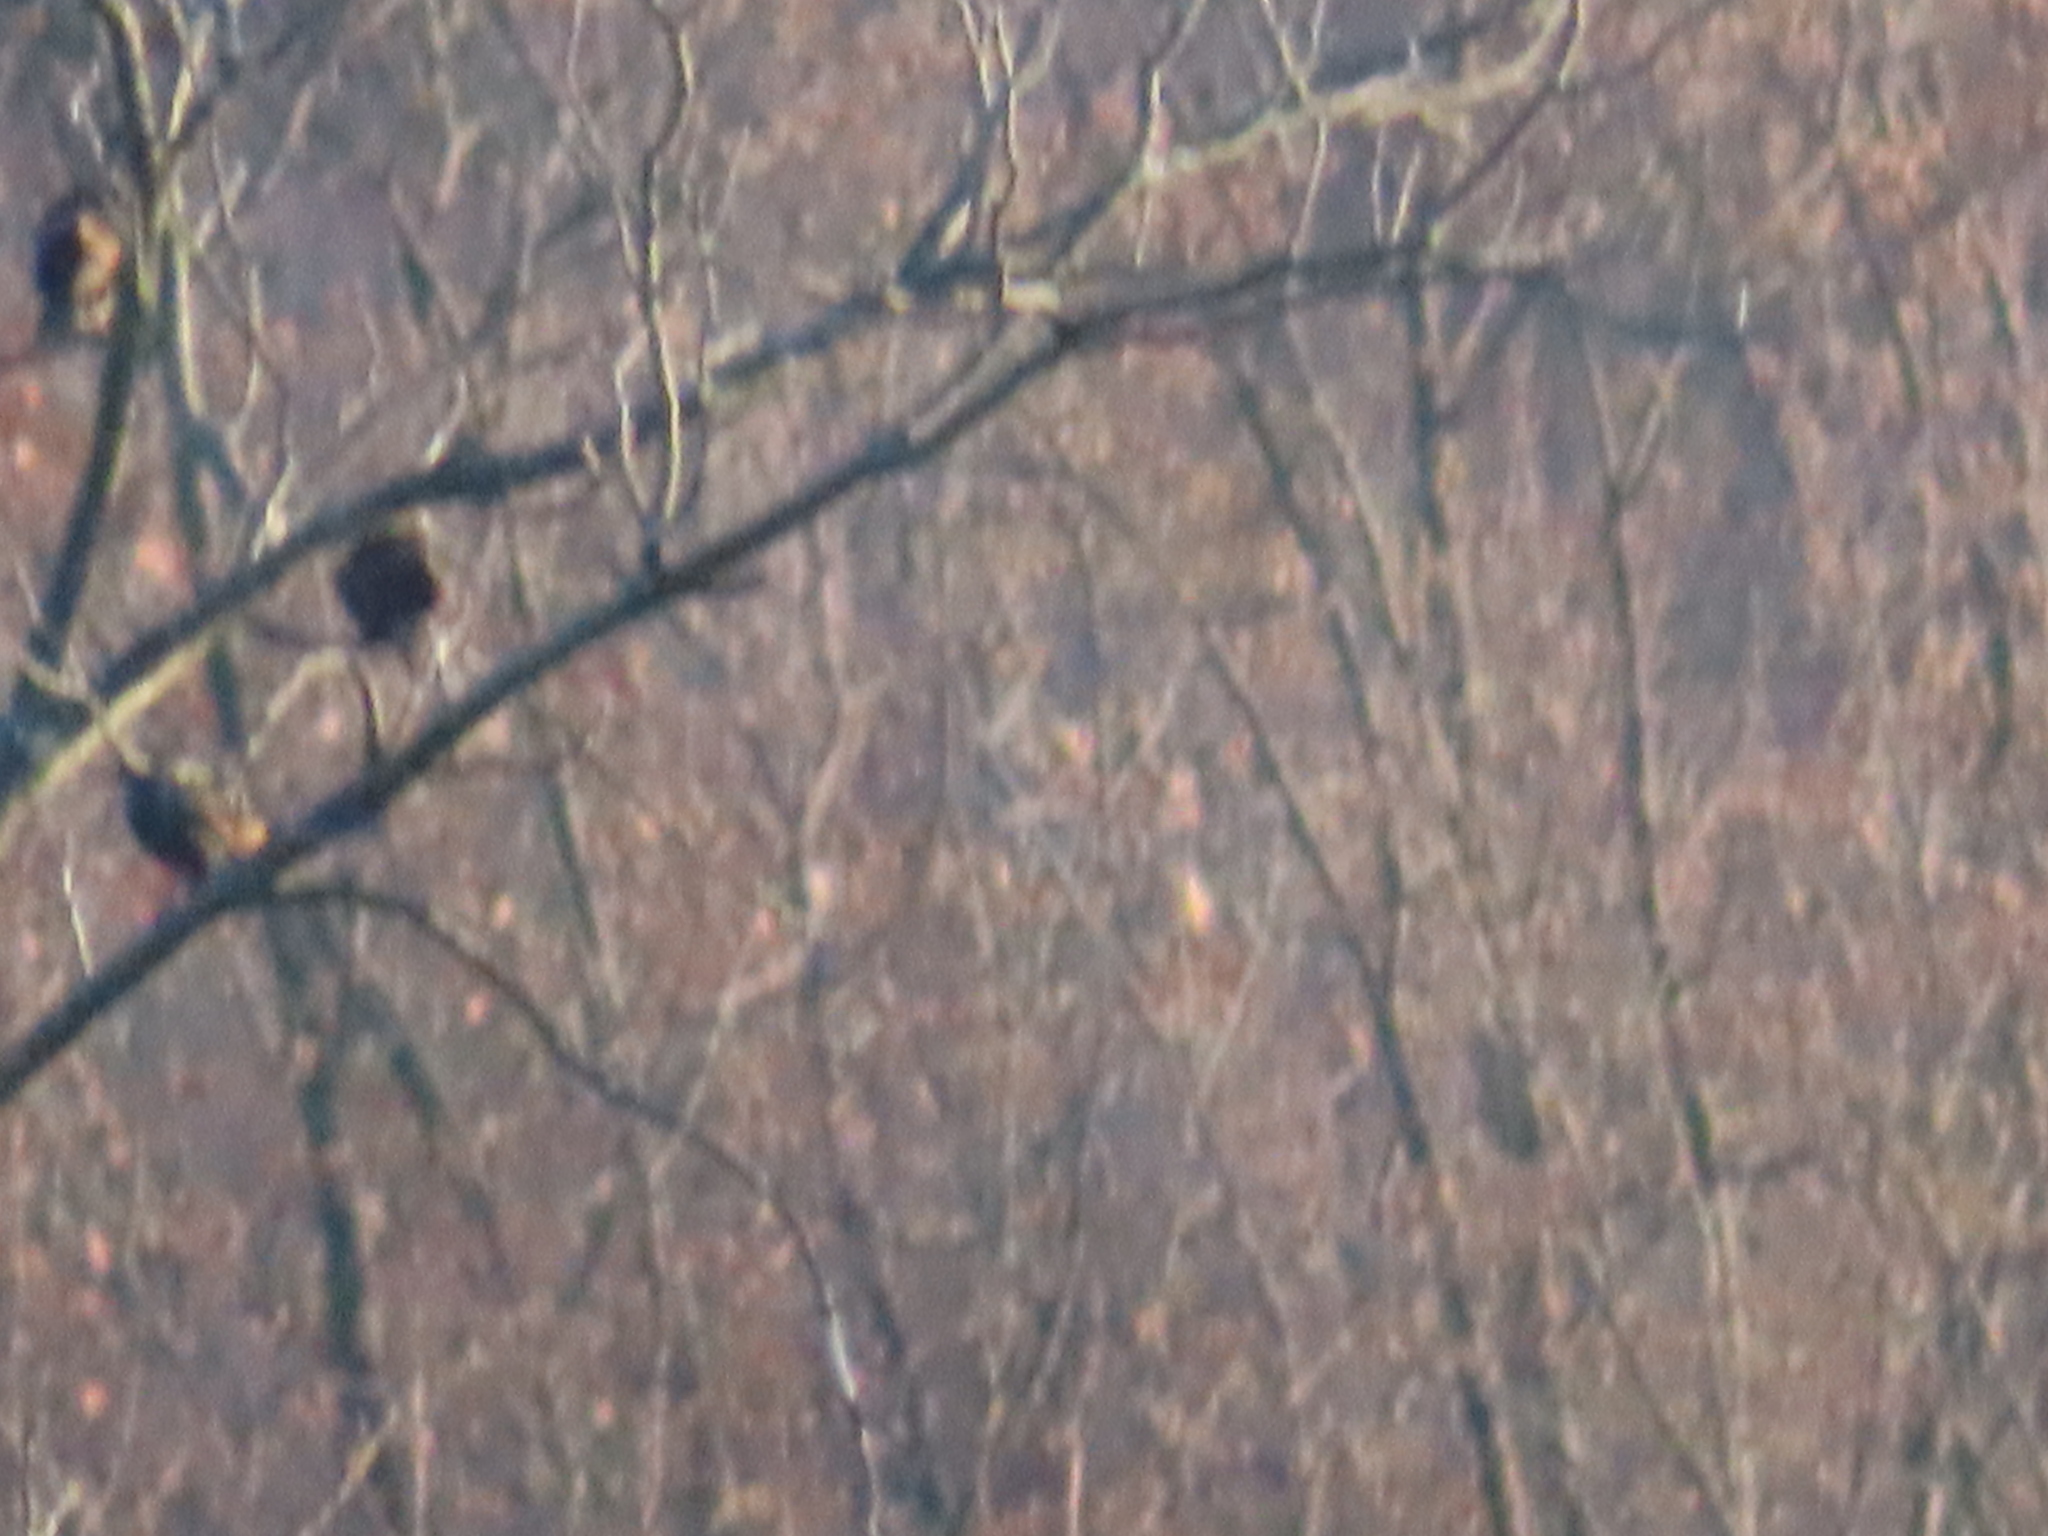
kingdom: Animalia
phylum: Chordata
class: Aves
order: Passeriformes
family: Sturnidae
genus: Sturnus
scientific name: Sturnus vulgaris
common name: Common starling
